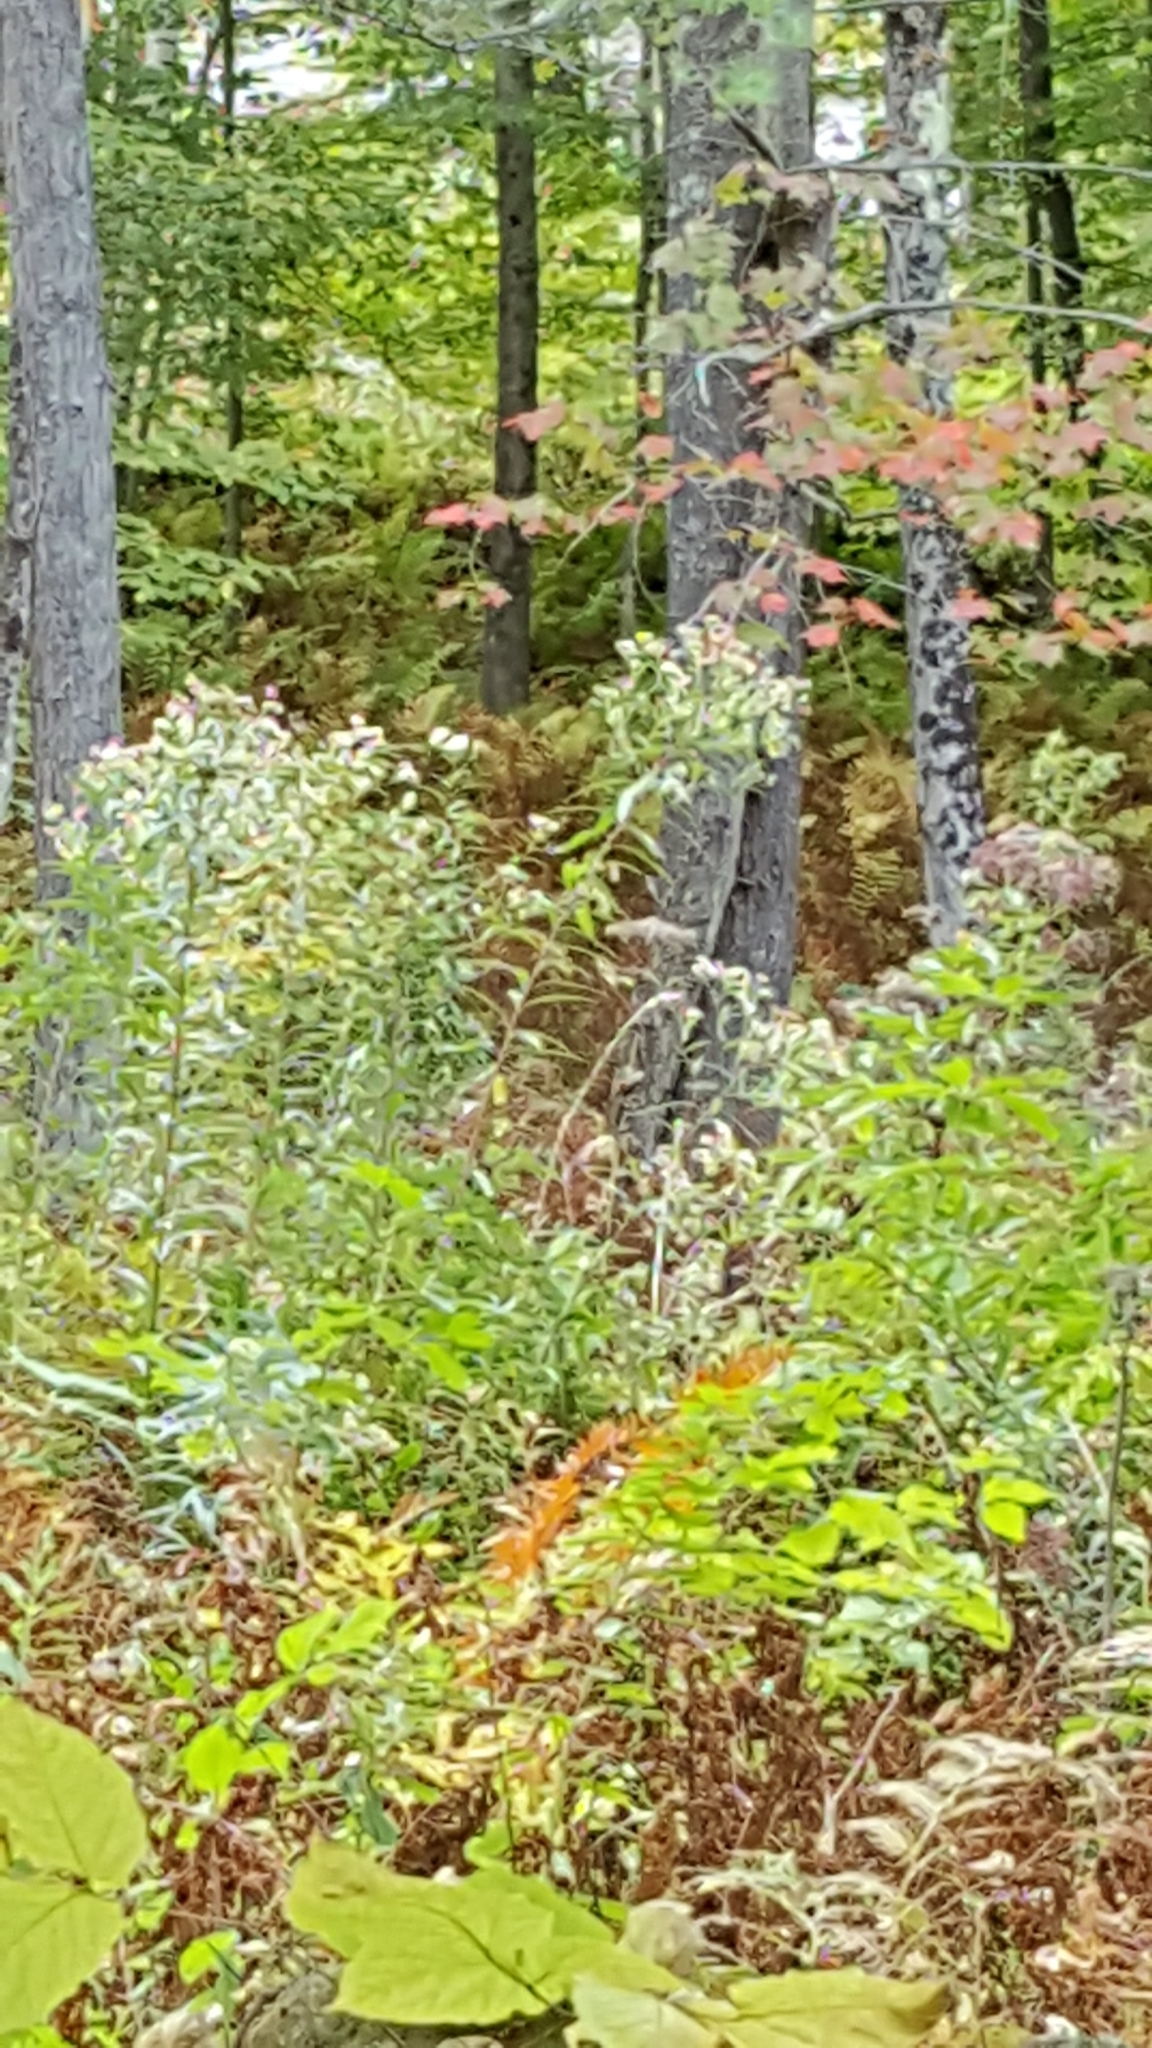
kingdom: Plantae
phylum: Tracheophyta
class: Magnoliopsida
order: Asterales
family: Asteraceae
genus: Doellingeria
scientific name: Doellingeria umbellata
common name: Flat-top white aster
